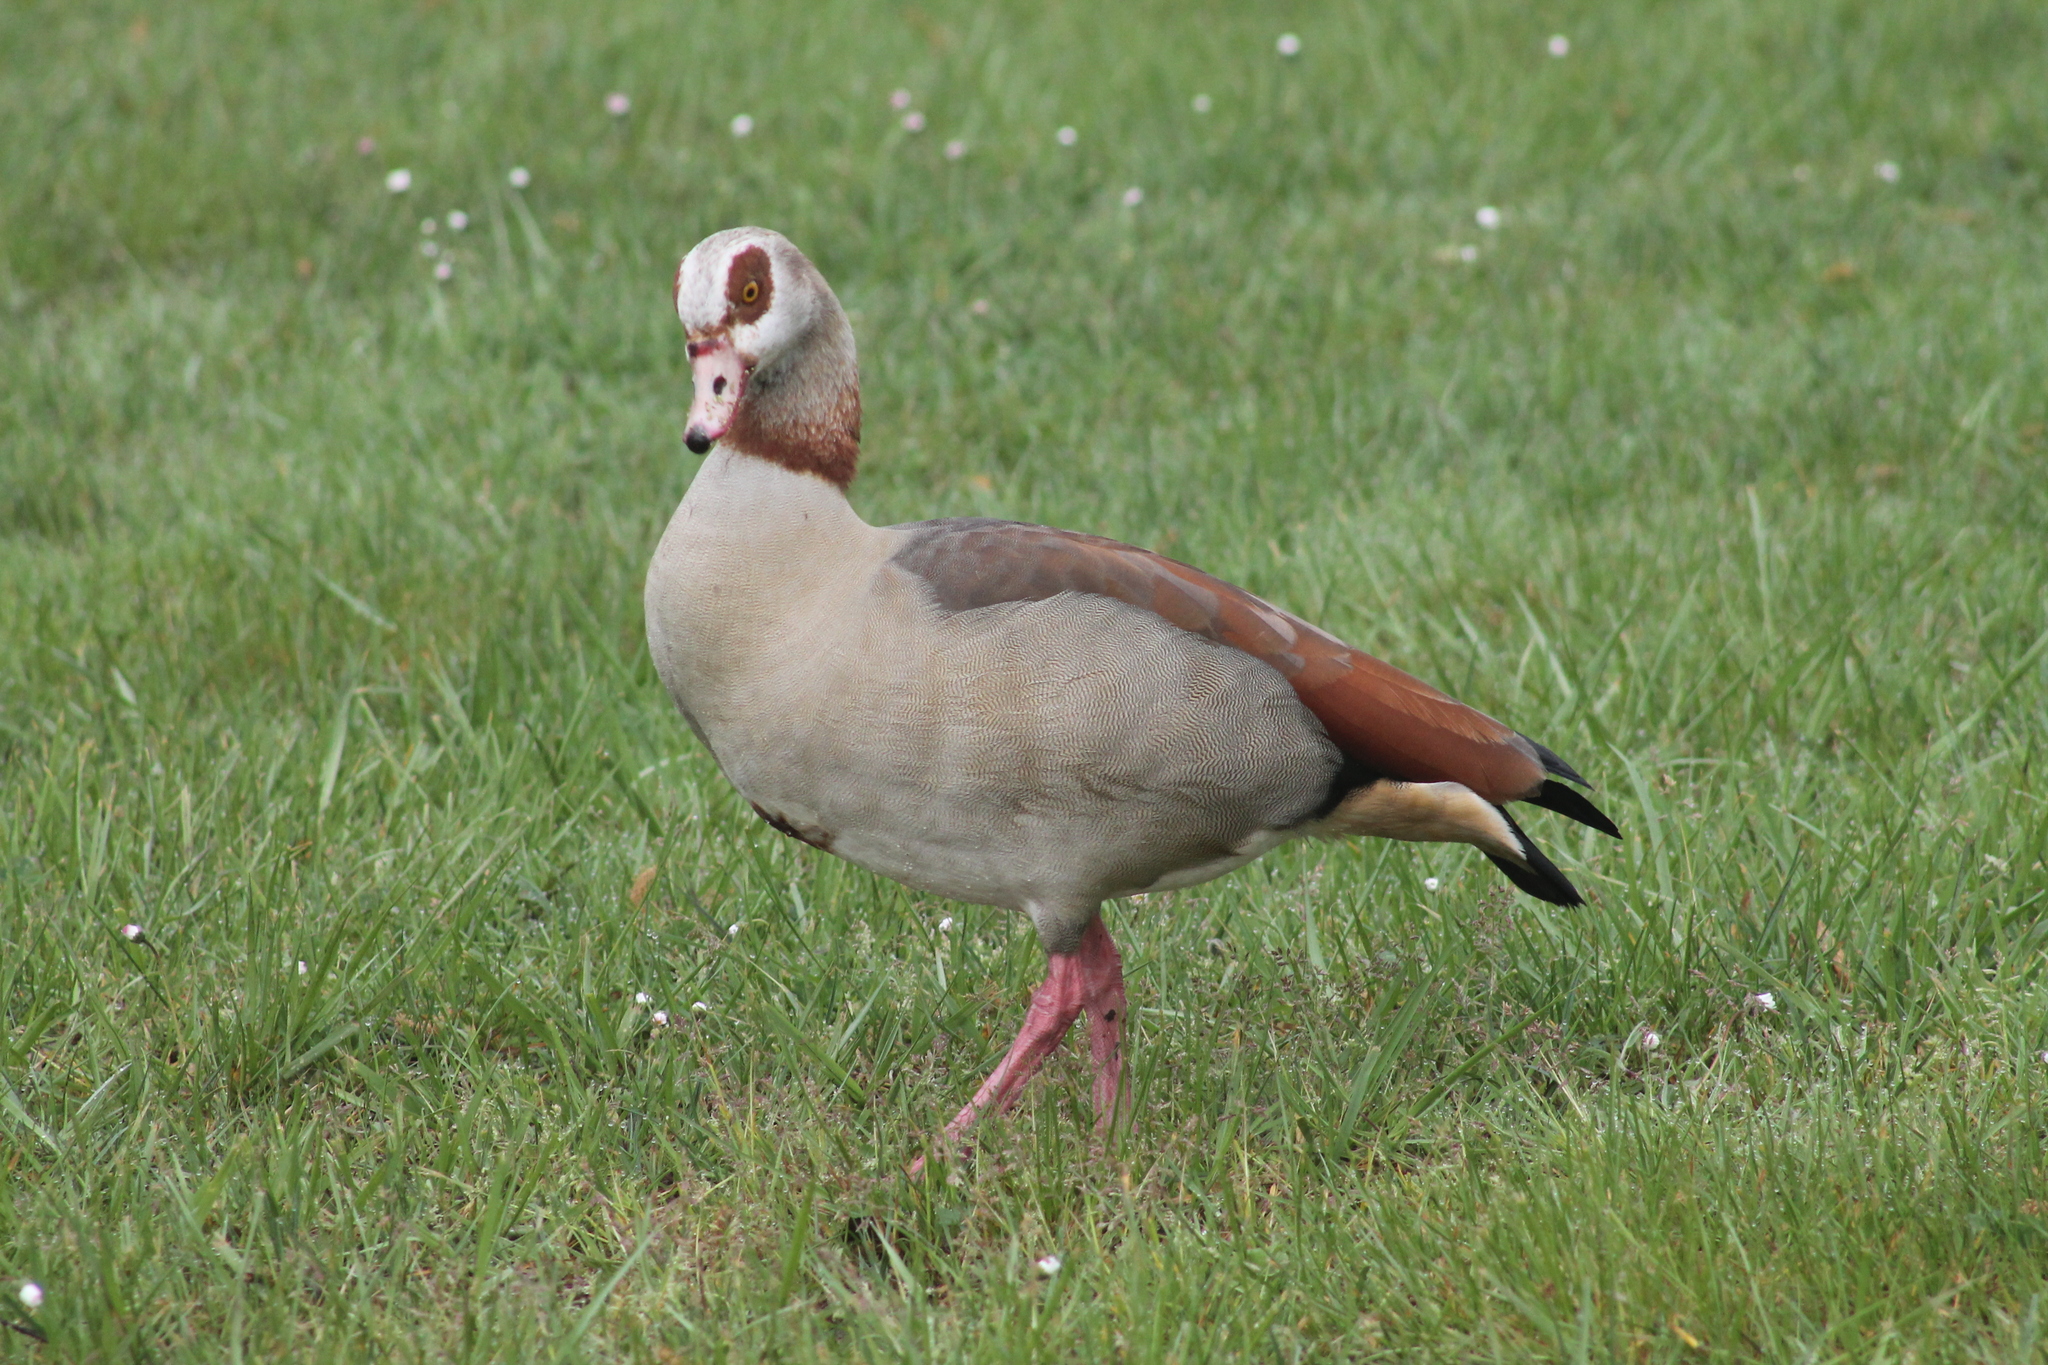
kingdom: Animalia
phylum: Chordata
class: Aves
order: Anseriformes
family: Anatidae
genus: Alopochen
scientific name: Alopochen aegyptiaca
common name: Egyptian goose
